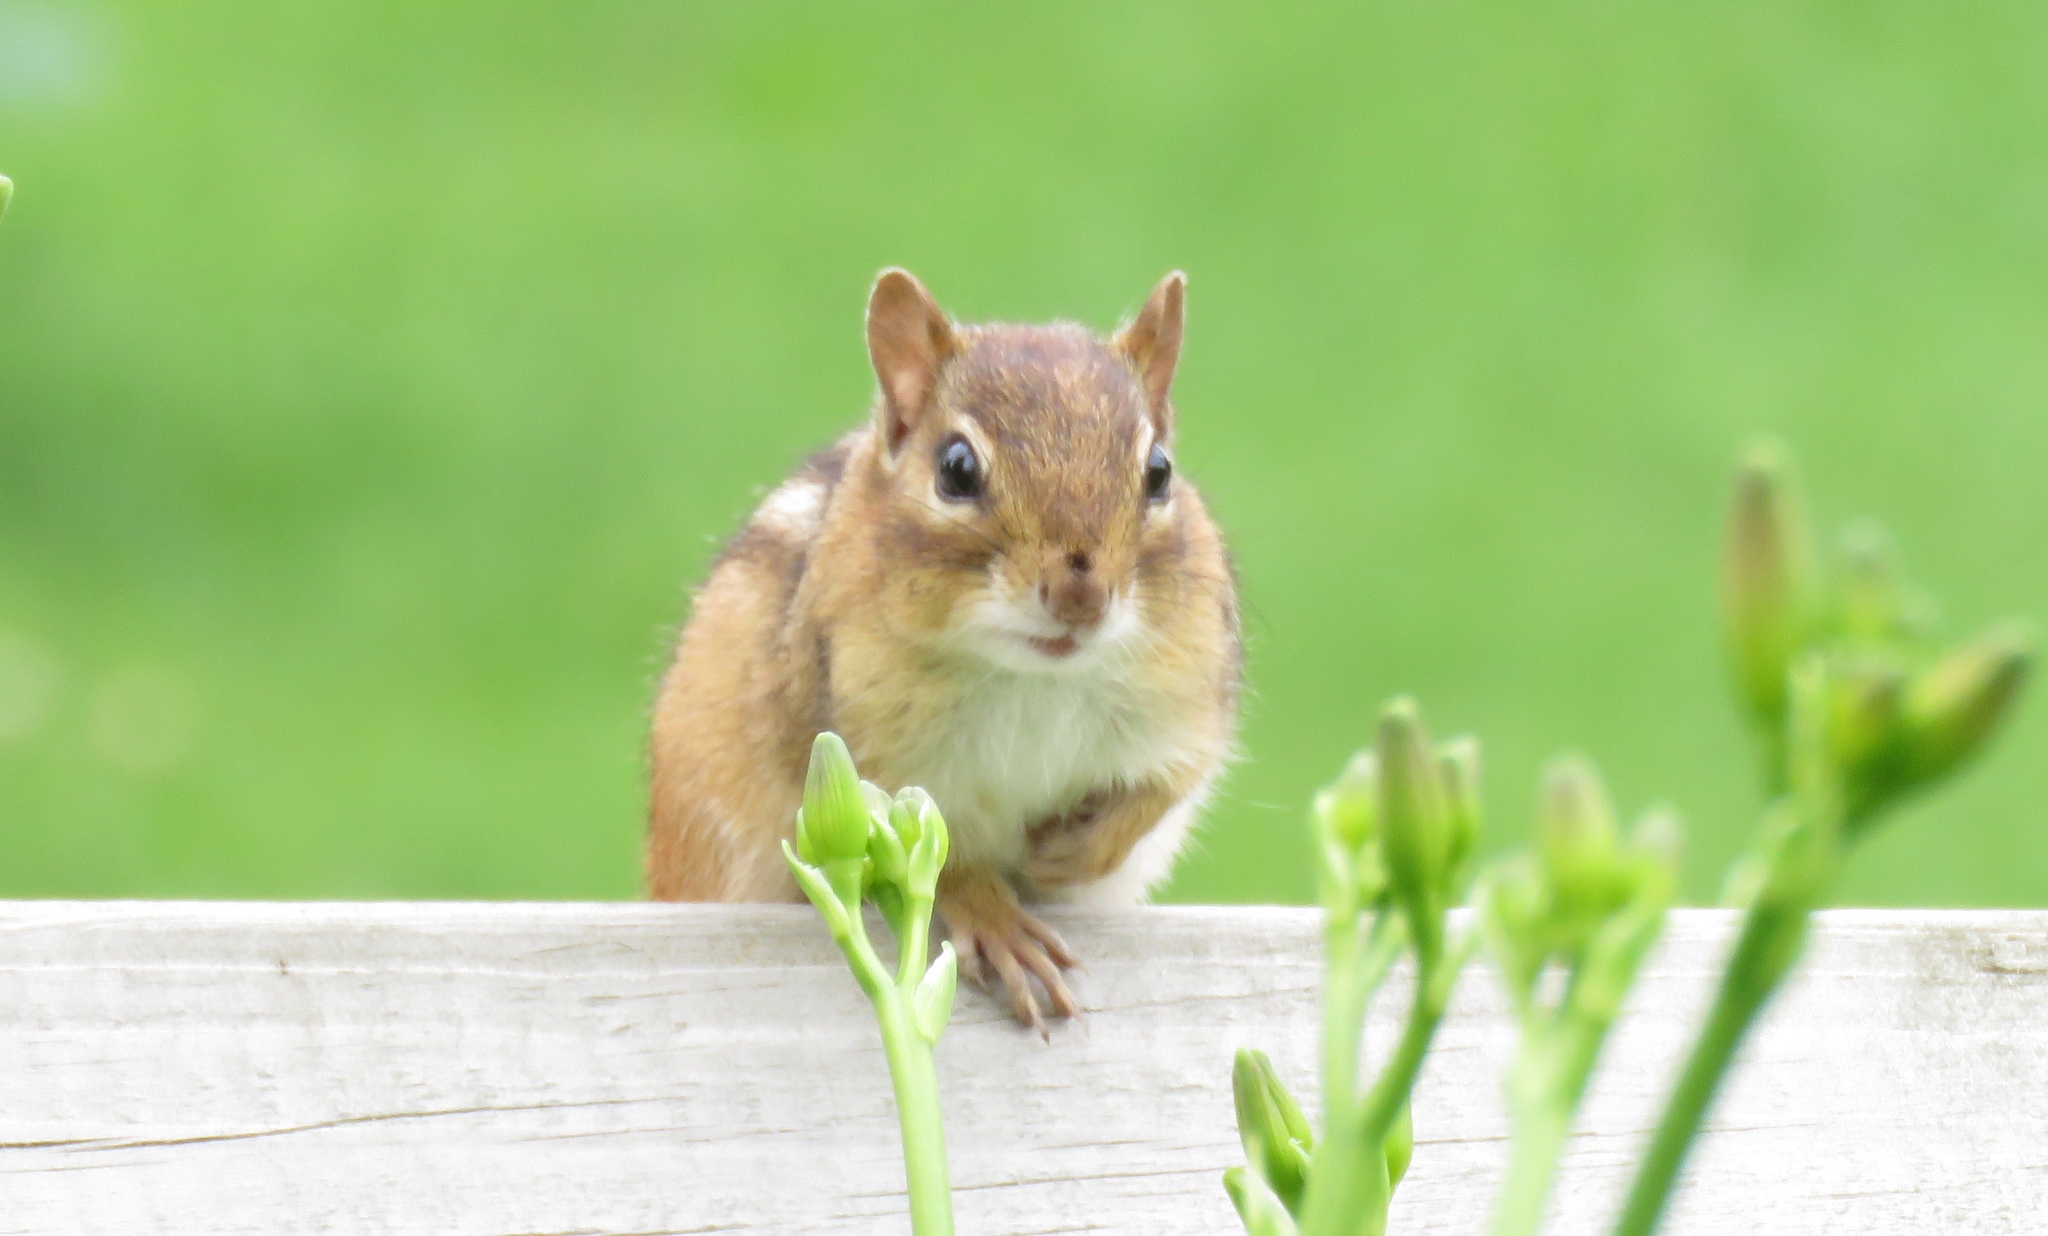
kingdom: Animalia
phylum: Chordata
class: Mammalia
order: Rodentia
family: Sciuridae
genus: Tamias
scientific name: Tamias striatus
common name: Eastern chipmunk
